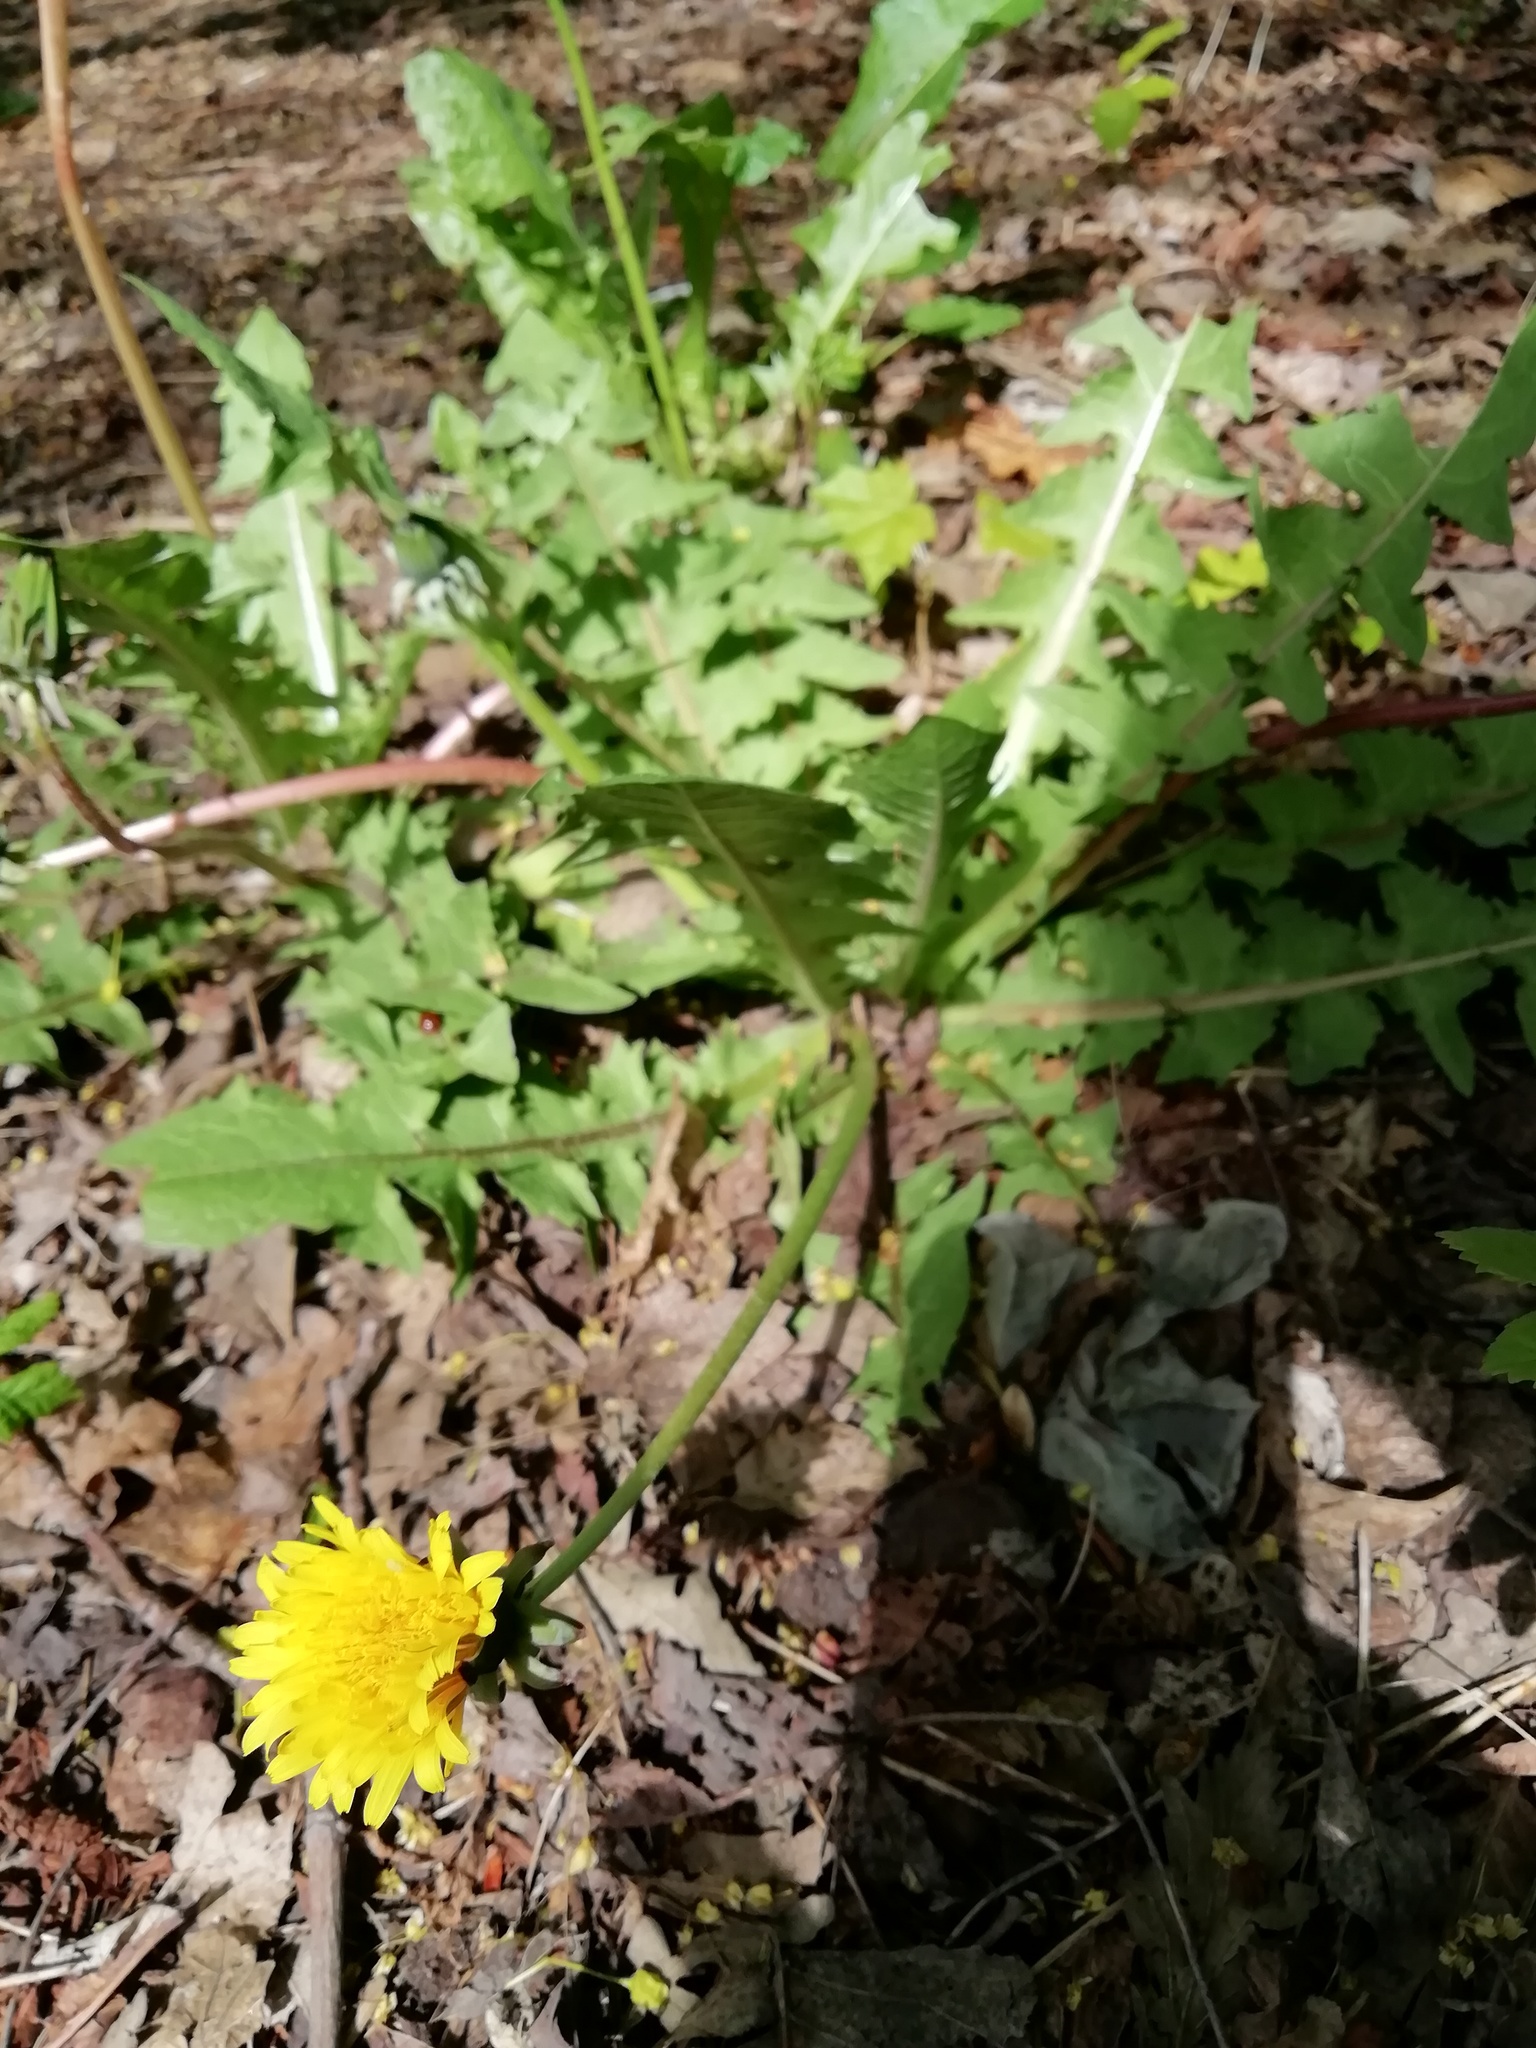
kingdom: Plantae
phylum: Tracheophyta
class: Magnoliopsida
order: Asterales
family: Asteraceae
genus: Taraxacum
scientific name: Taraxacum officinale
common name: Common dandelion
